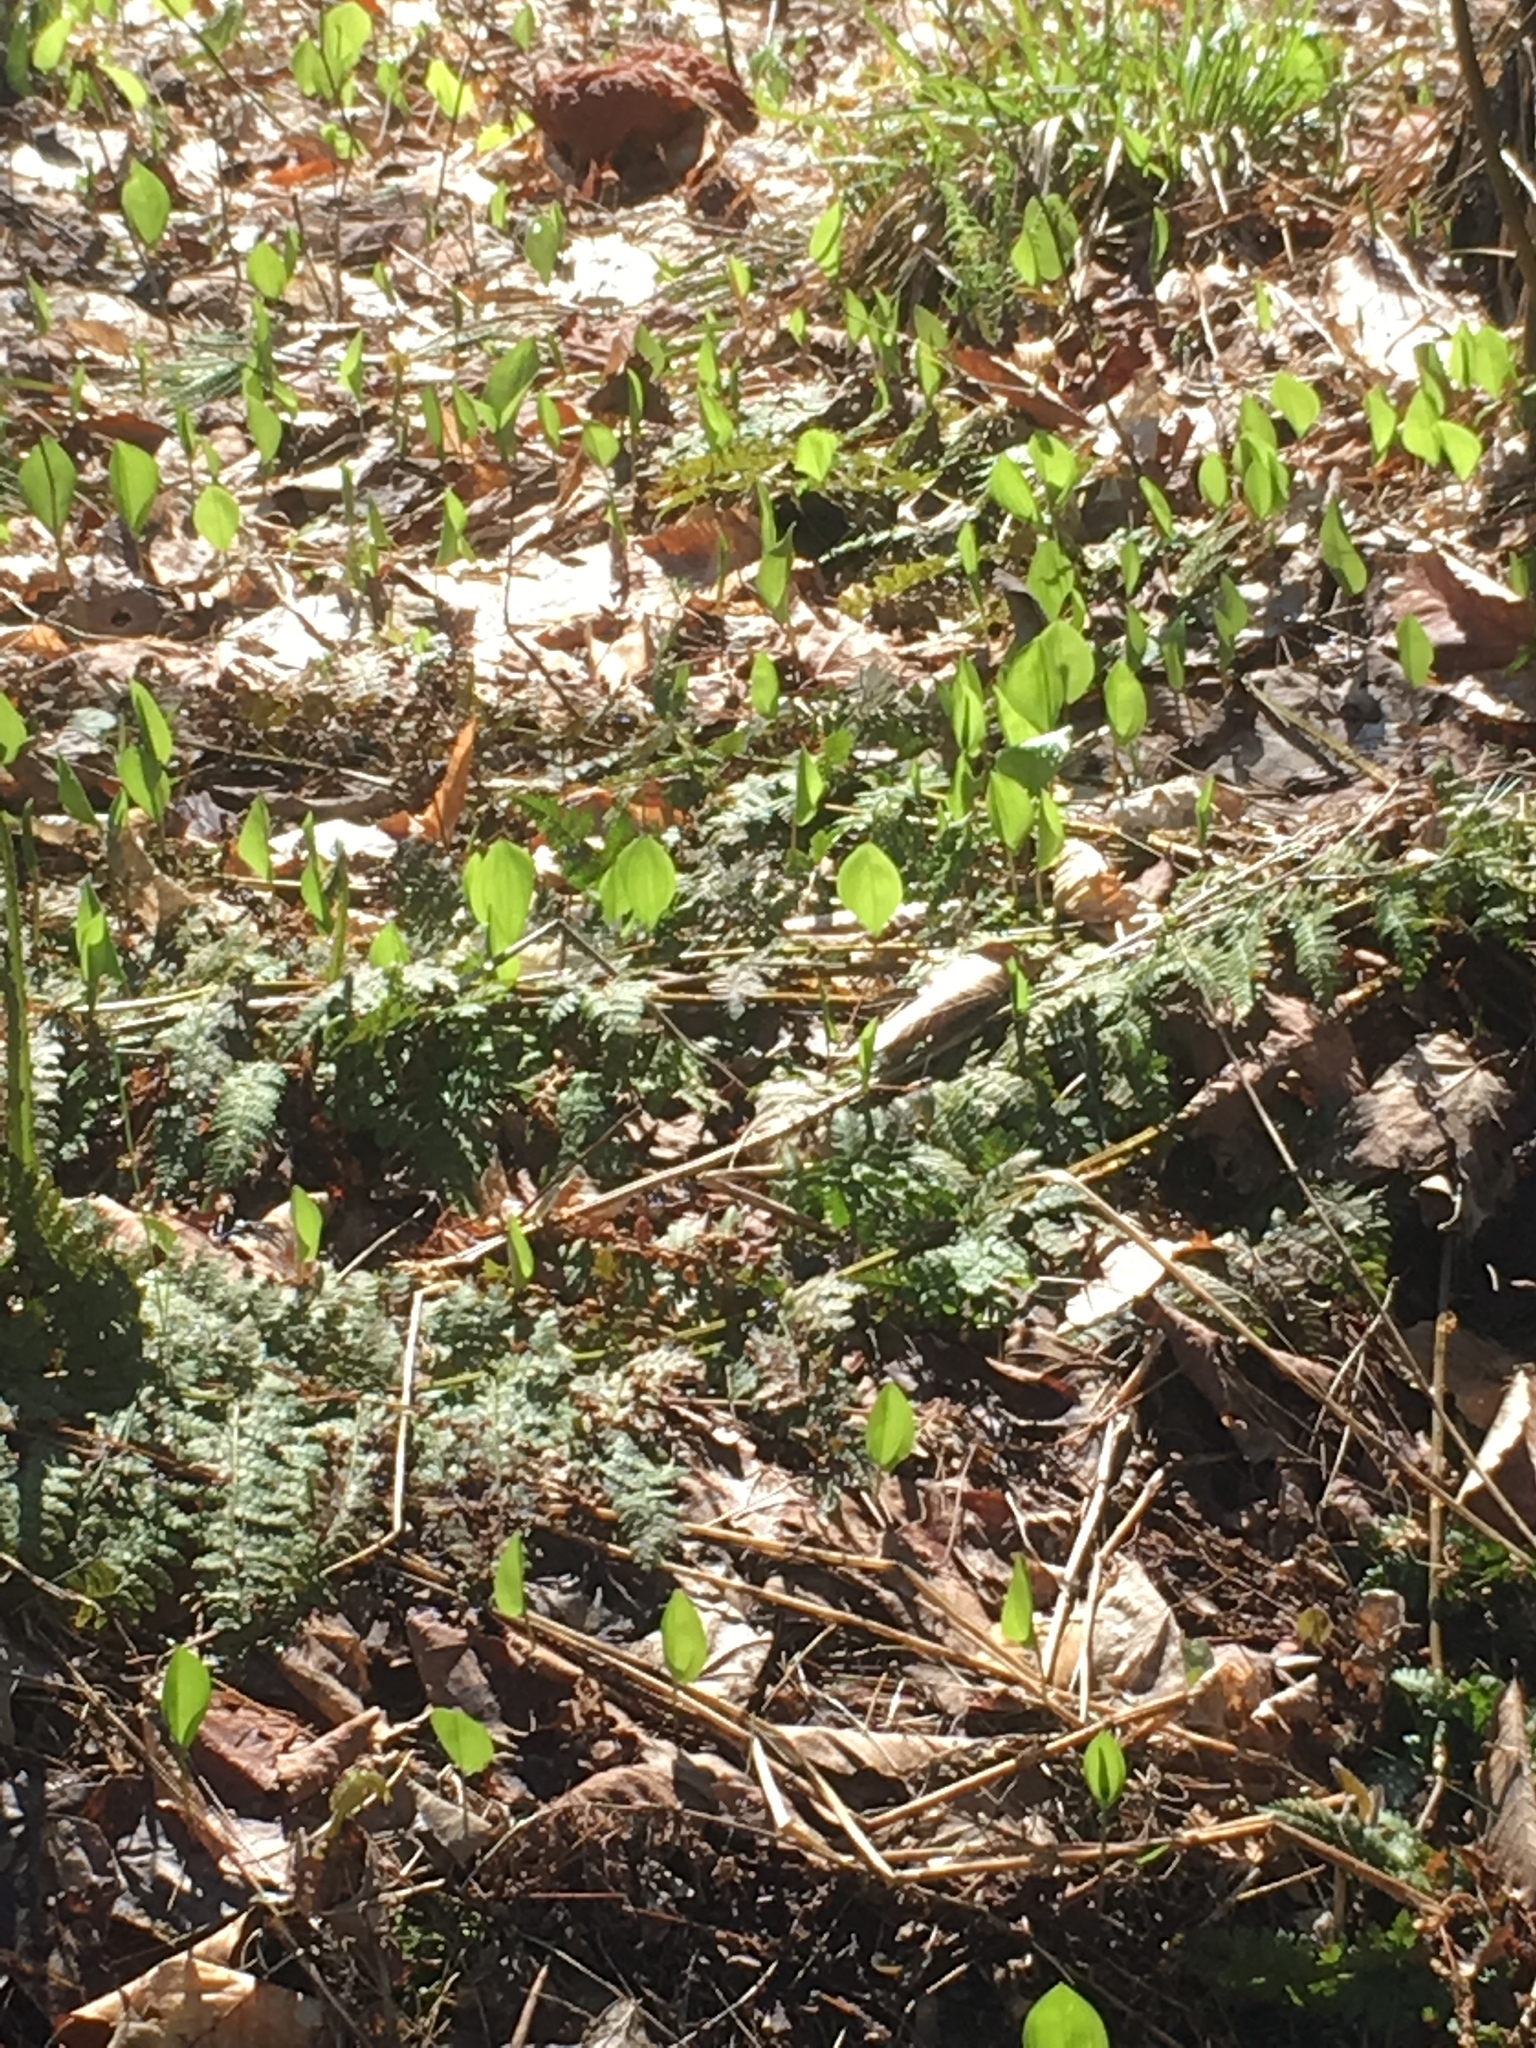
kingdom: Plantae
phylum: Tracheophyta
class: Liliopsida
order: Asparagales
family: Asparagaceae
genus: Maianthemum
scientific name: Maianthemum canadense
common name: False lily-of-the-valley
